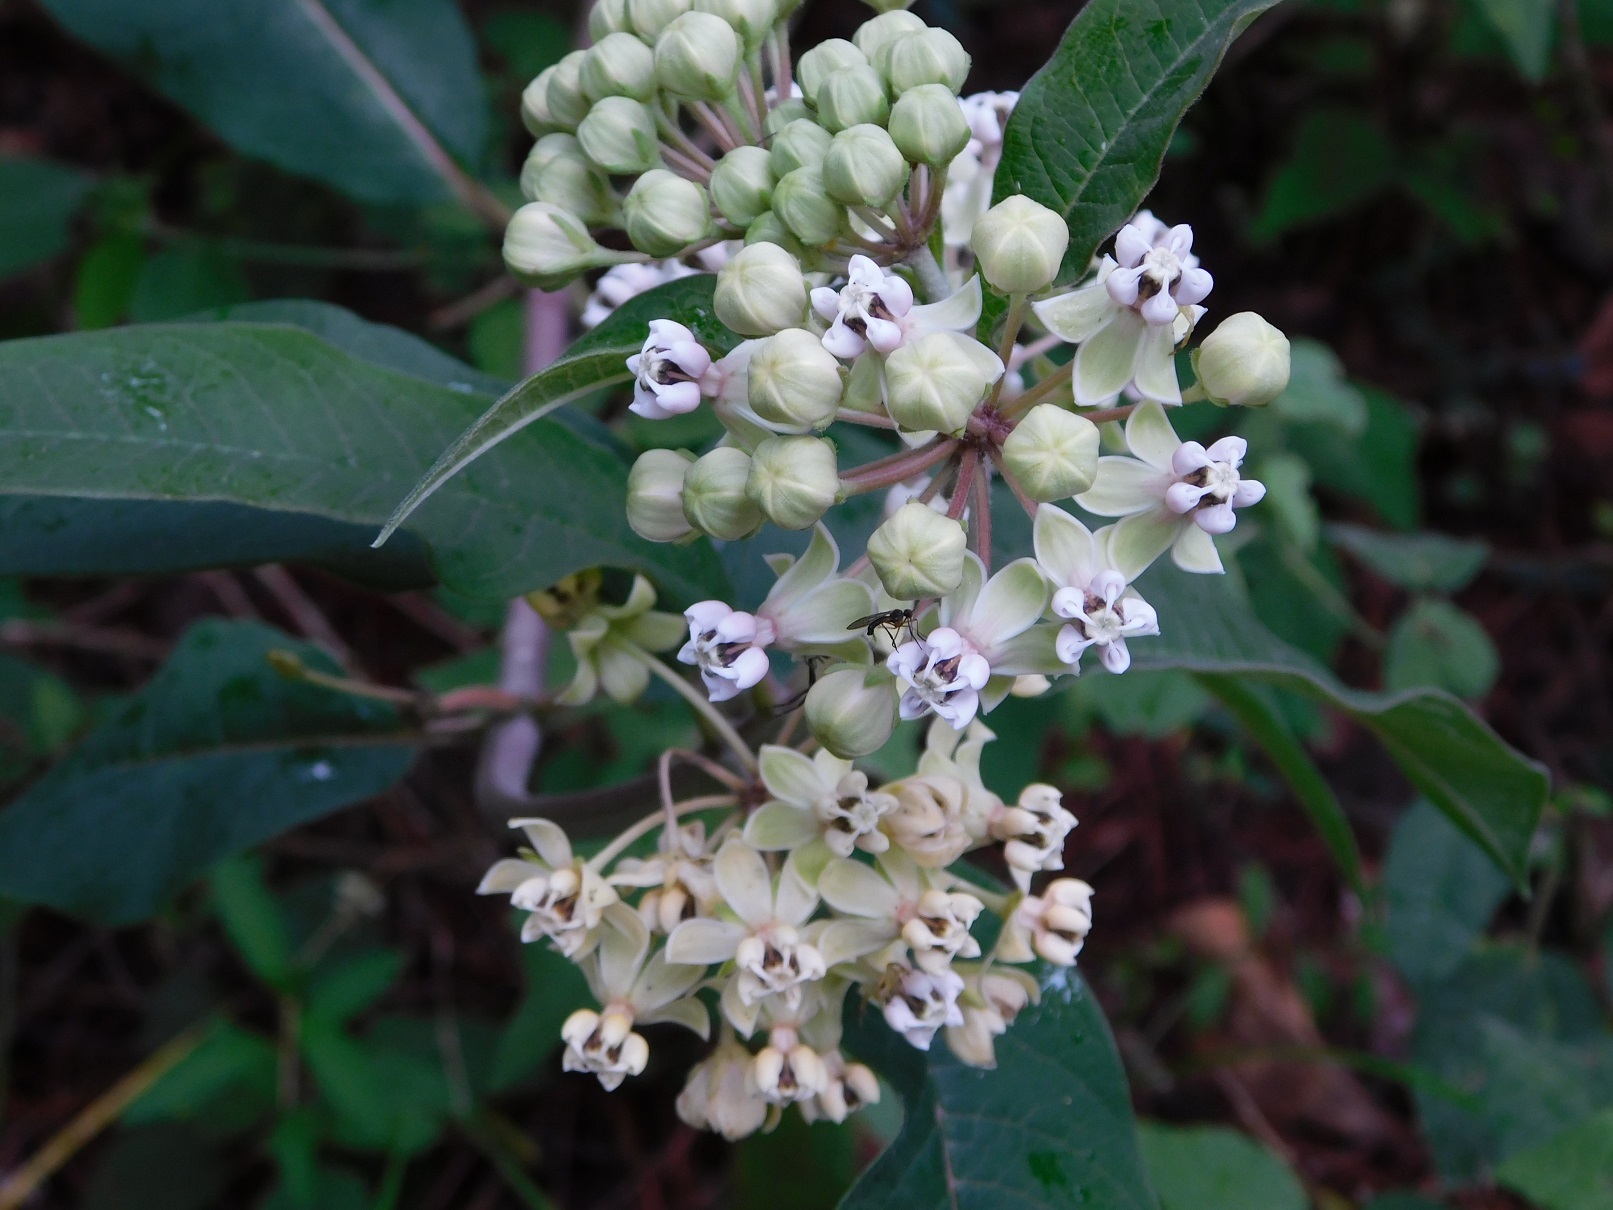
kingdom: Plantae
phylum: Tracheophyta
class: Magnoliopsida
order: Gentianales
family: Apocynaceae
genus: Asclepias
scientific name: Asclepias similis
